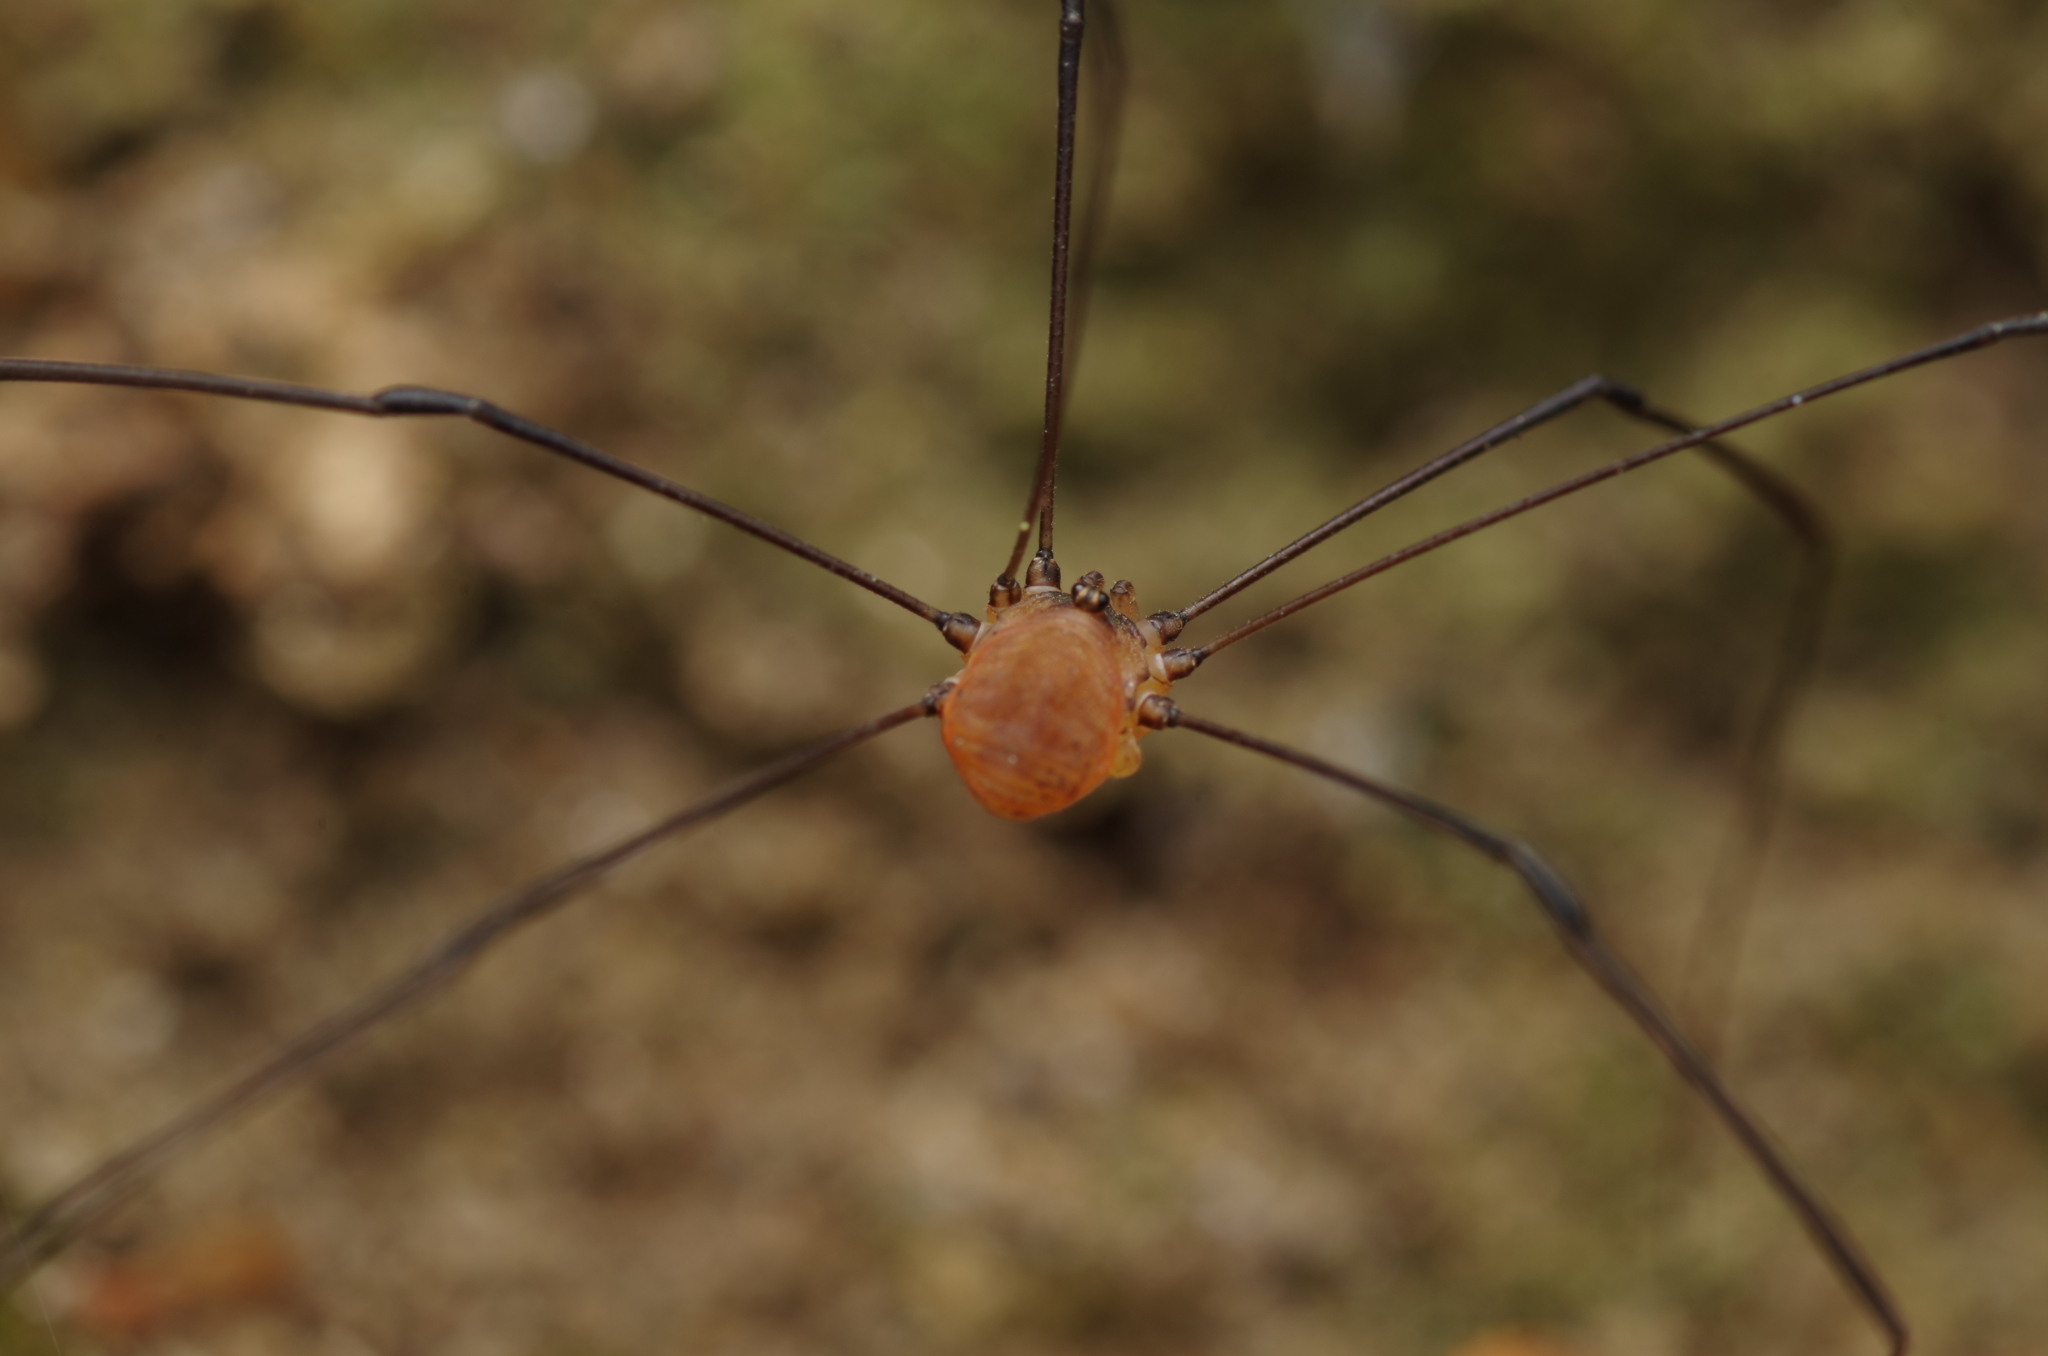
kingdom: Animalia
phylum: Arthropoda
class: Arachnida
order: Opiliones
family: Sclerosomatidae
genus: Leiobunum
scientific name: Leiobunum blackwalli
